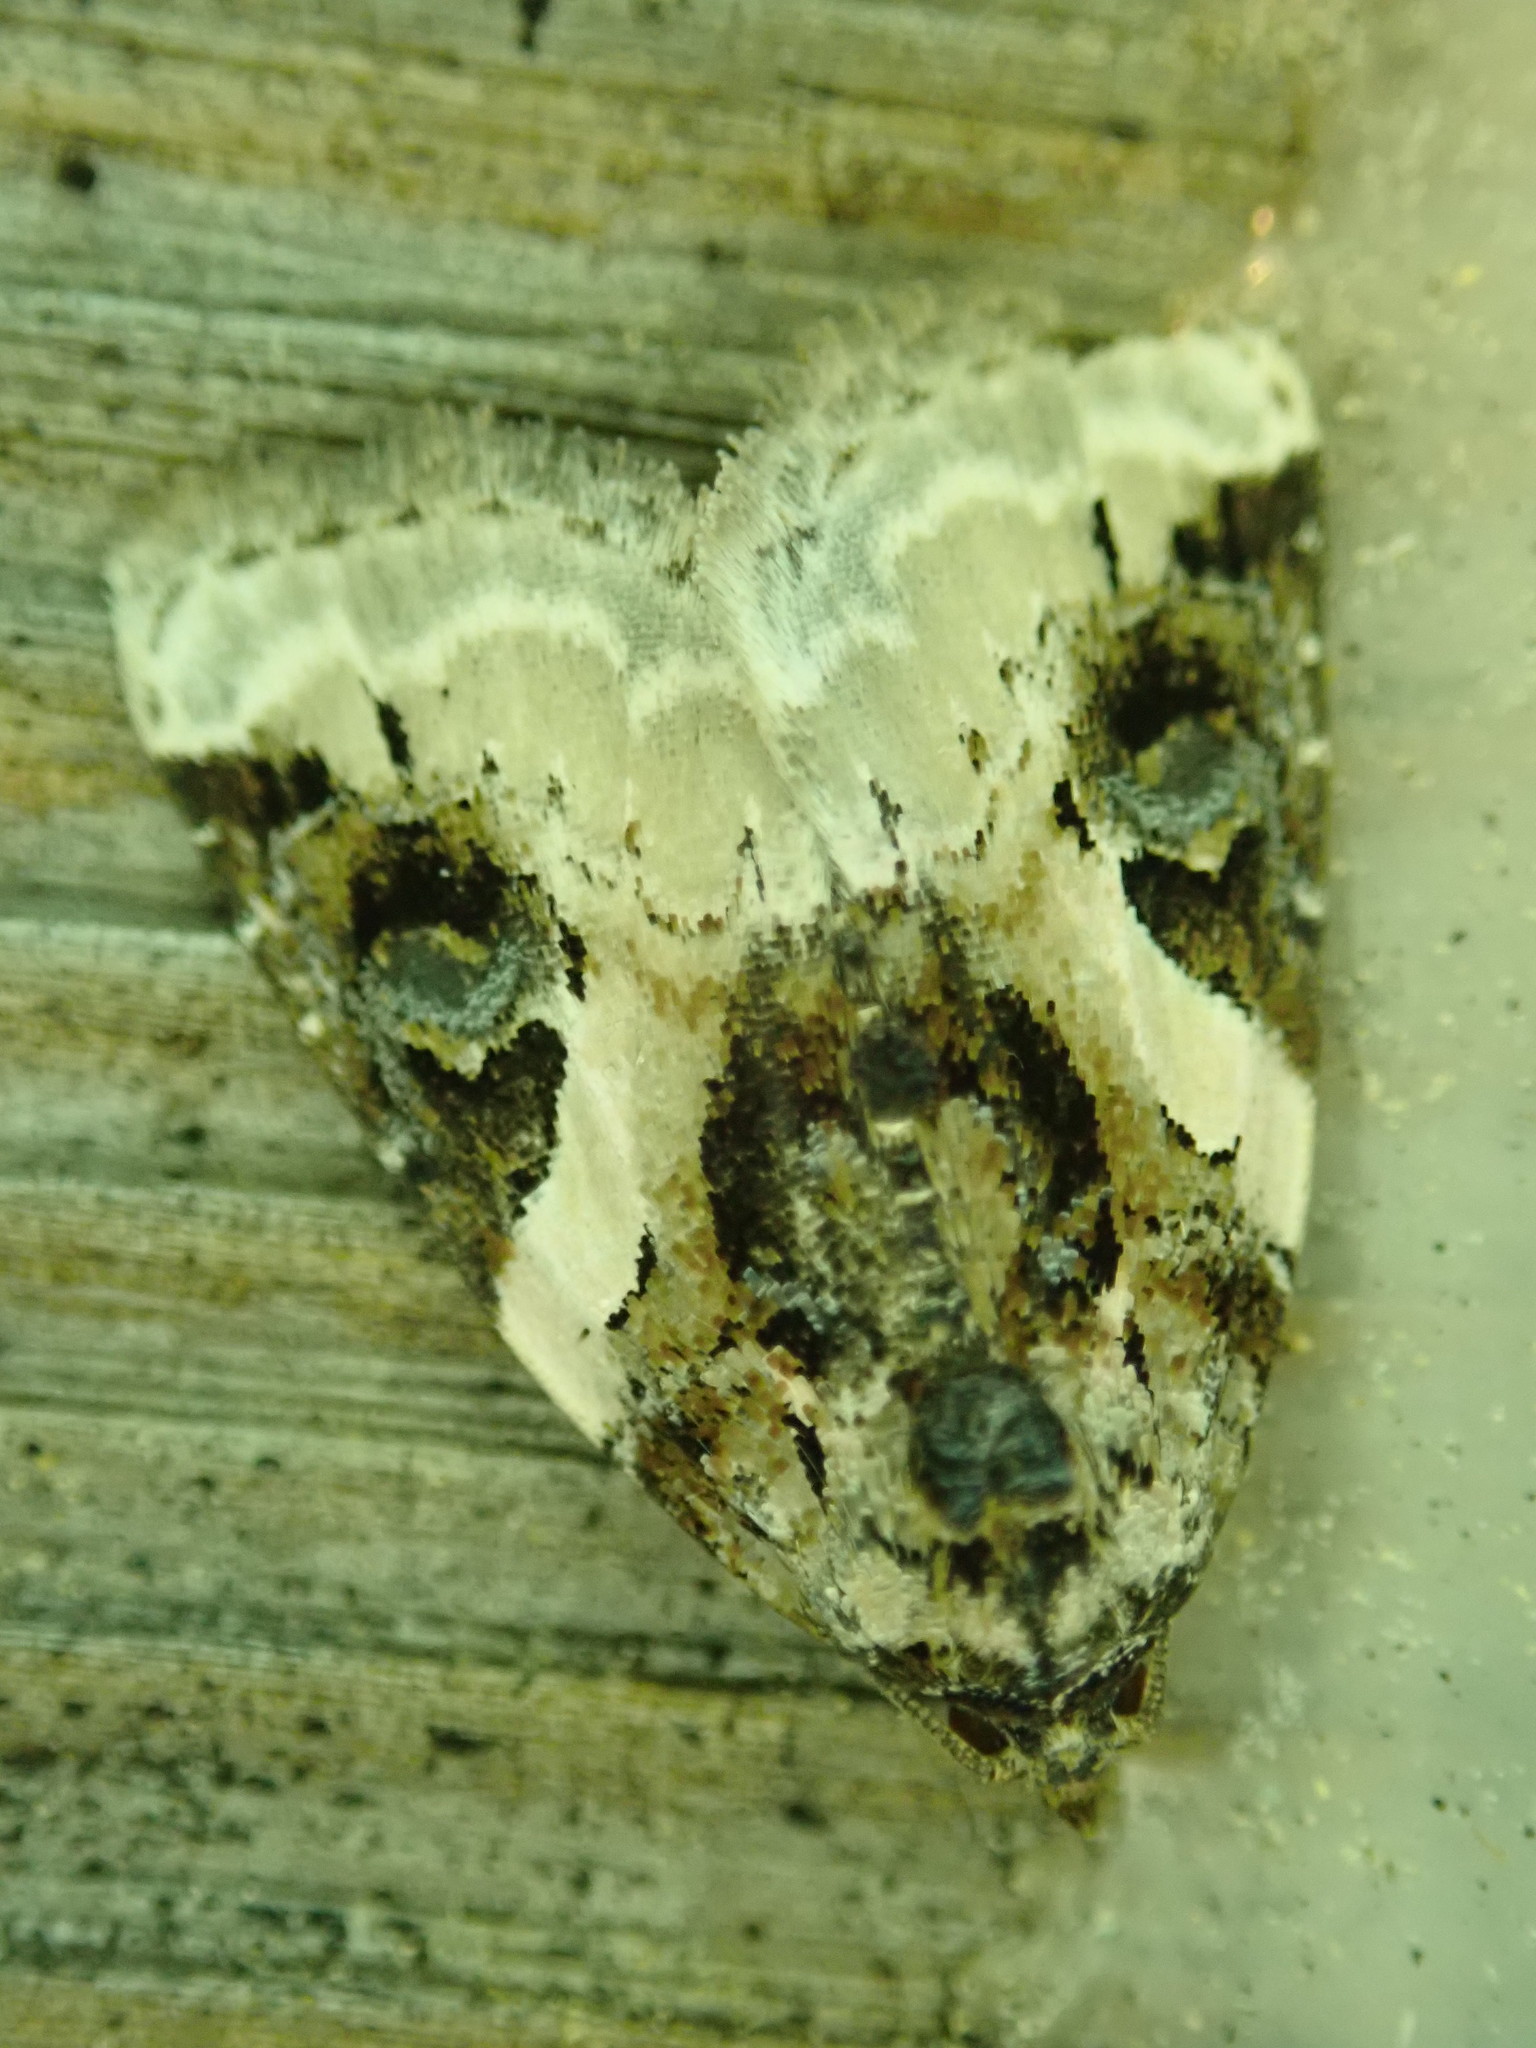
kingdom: Animalia
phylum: Arthropoda
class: Insecta
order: Lepidoptera
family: Noctuidae
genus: Pseudeustrotia
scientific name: Pseudeustrotia carneola
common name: Pink-barred lithacodia moth
